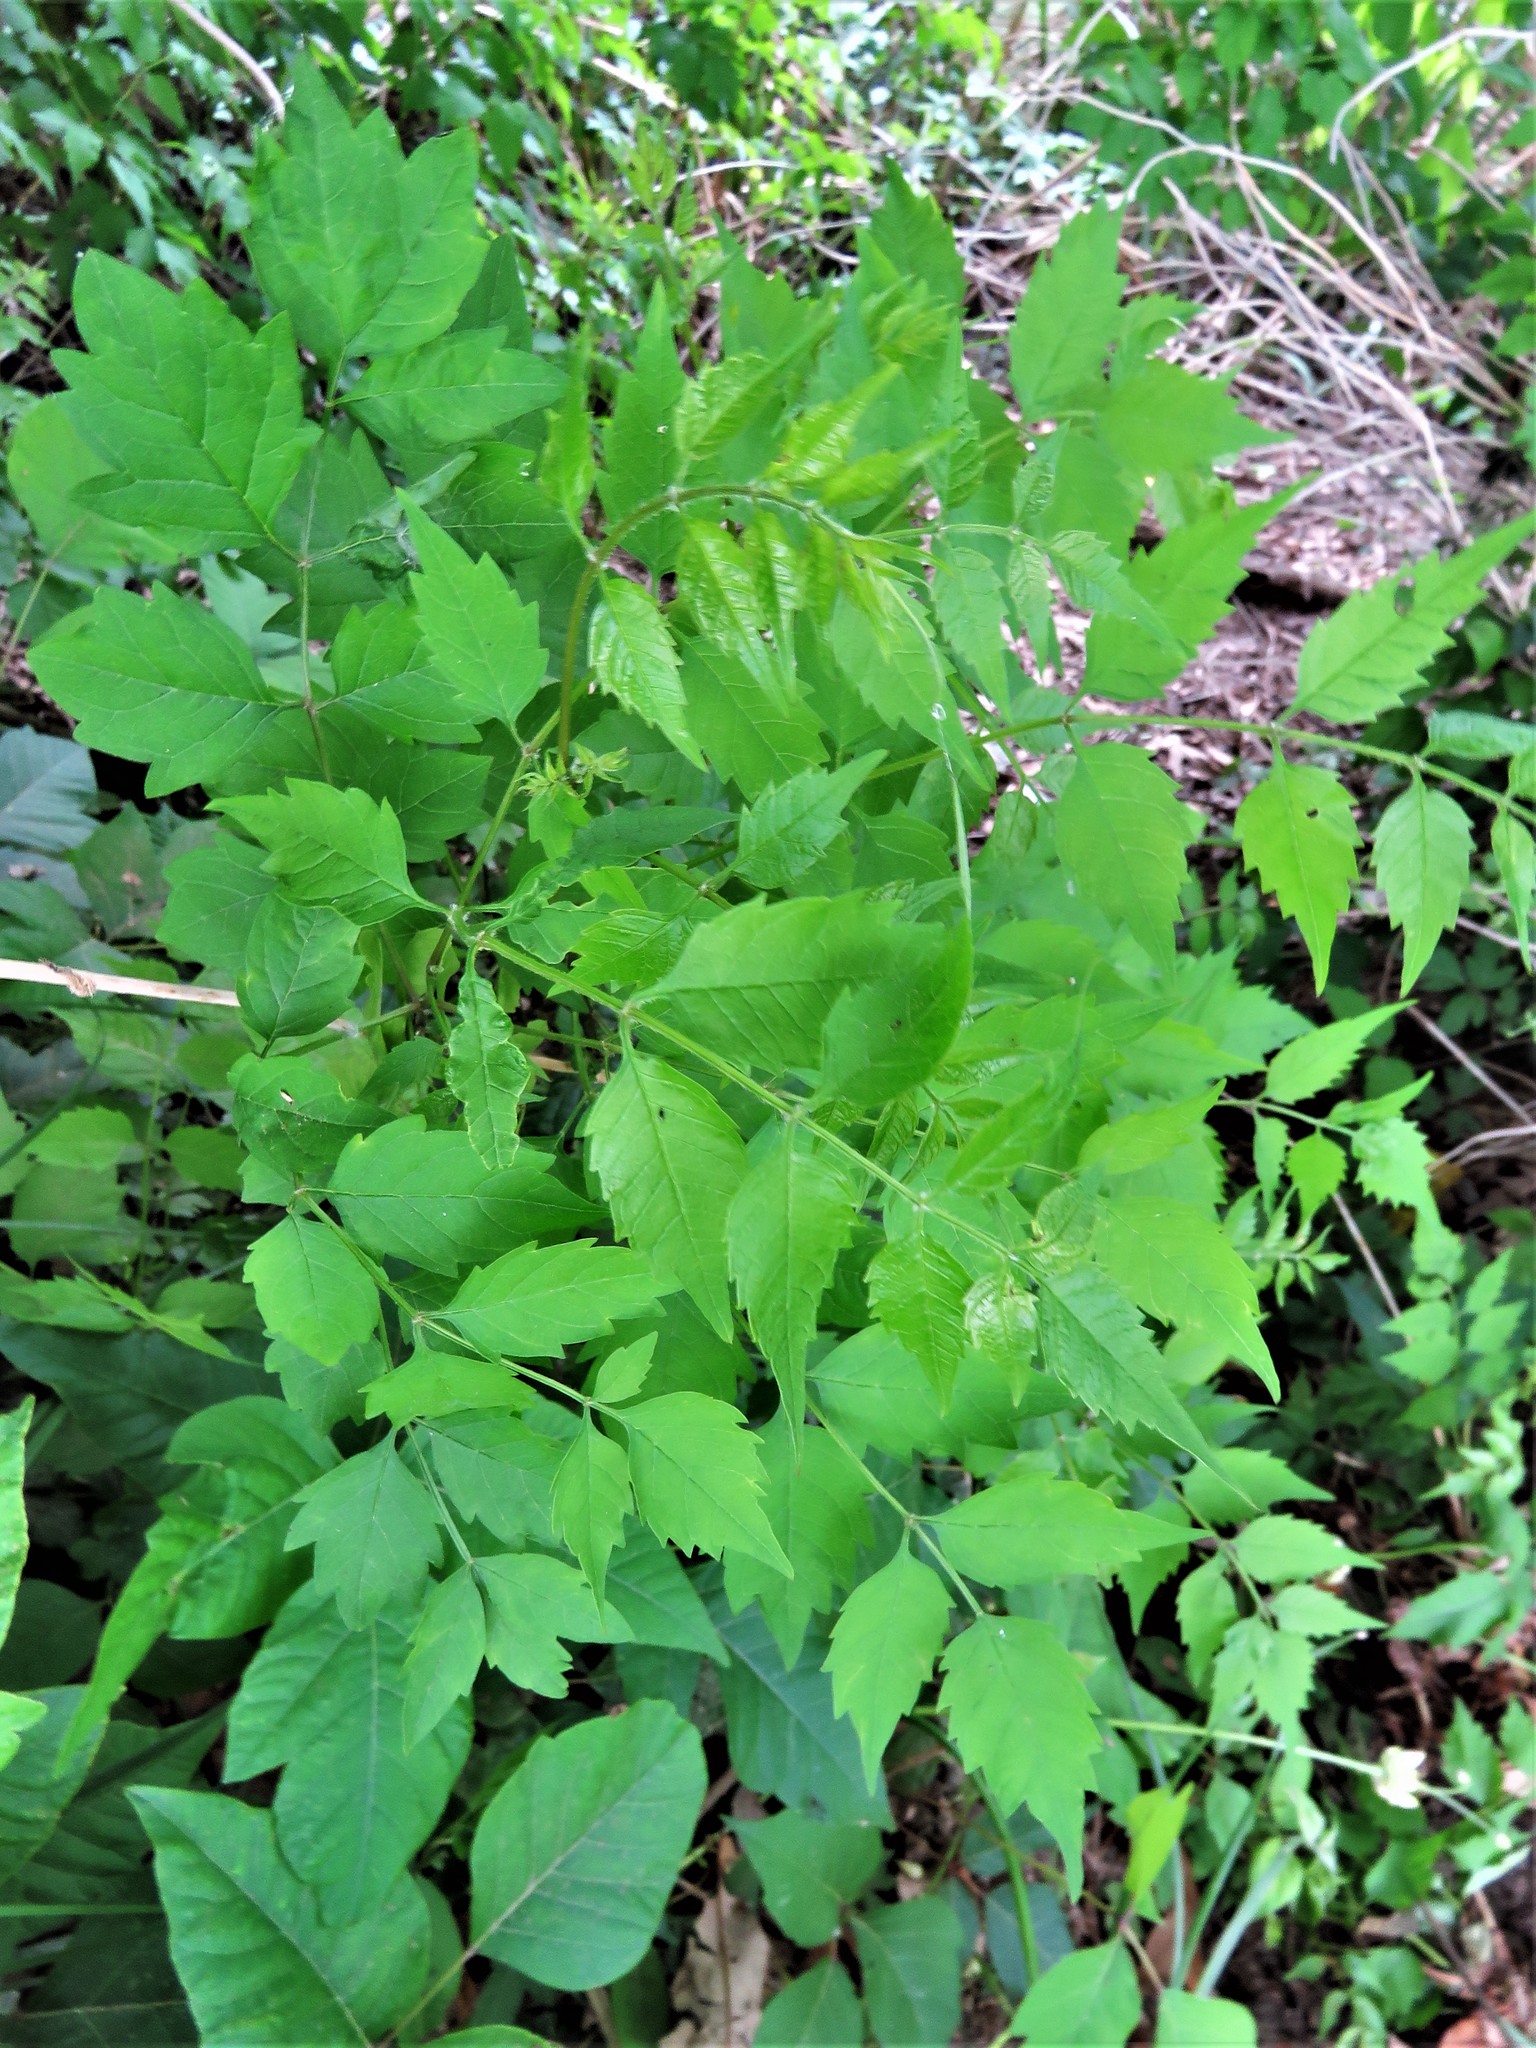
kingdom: Plantae
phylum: Tracheophyta
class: Magnoliopsida
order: Lamiales
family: Bignoniaceae
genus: Campsis
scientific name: Campsis radicans
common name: Trumpet-creeper
